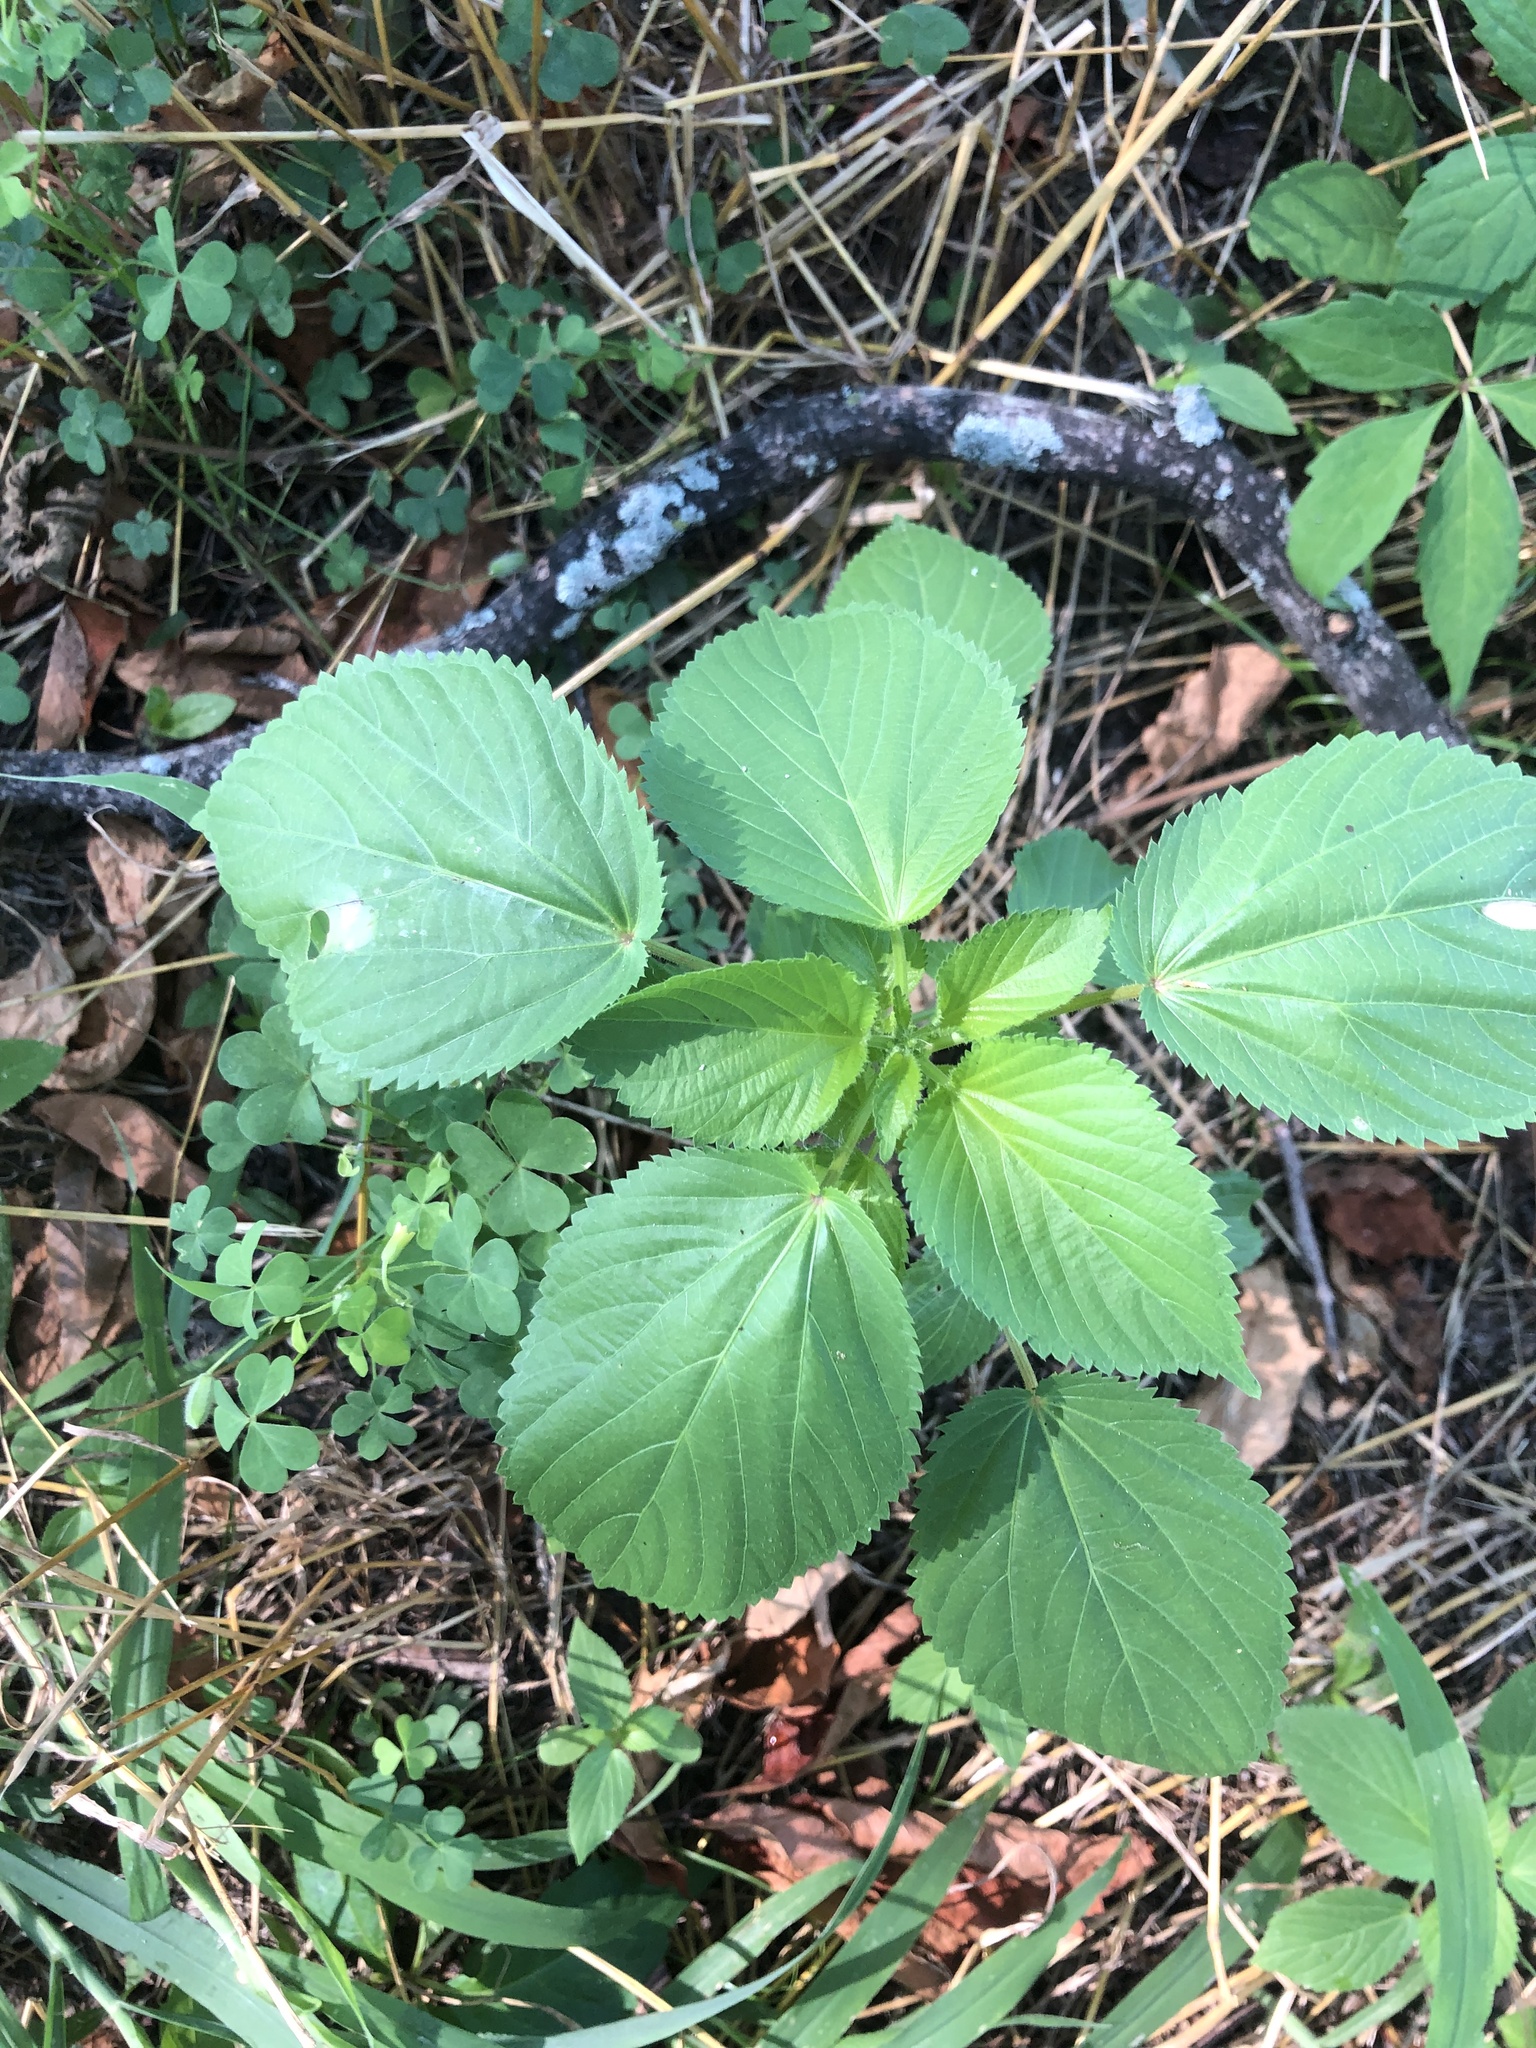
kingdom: Plantae
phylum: Tracheophyta
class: Magnoliopsida
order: Malpighiales
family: Euphorbiaceae
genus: Acalypha
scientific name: Acalypha ostryifolia
